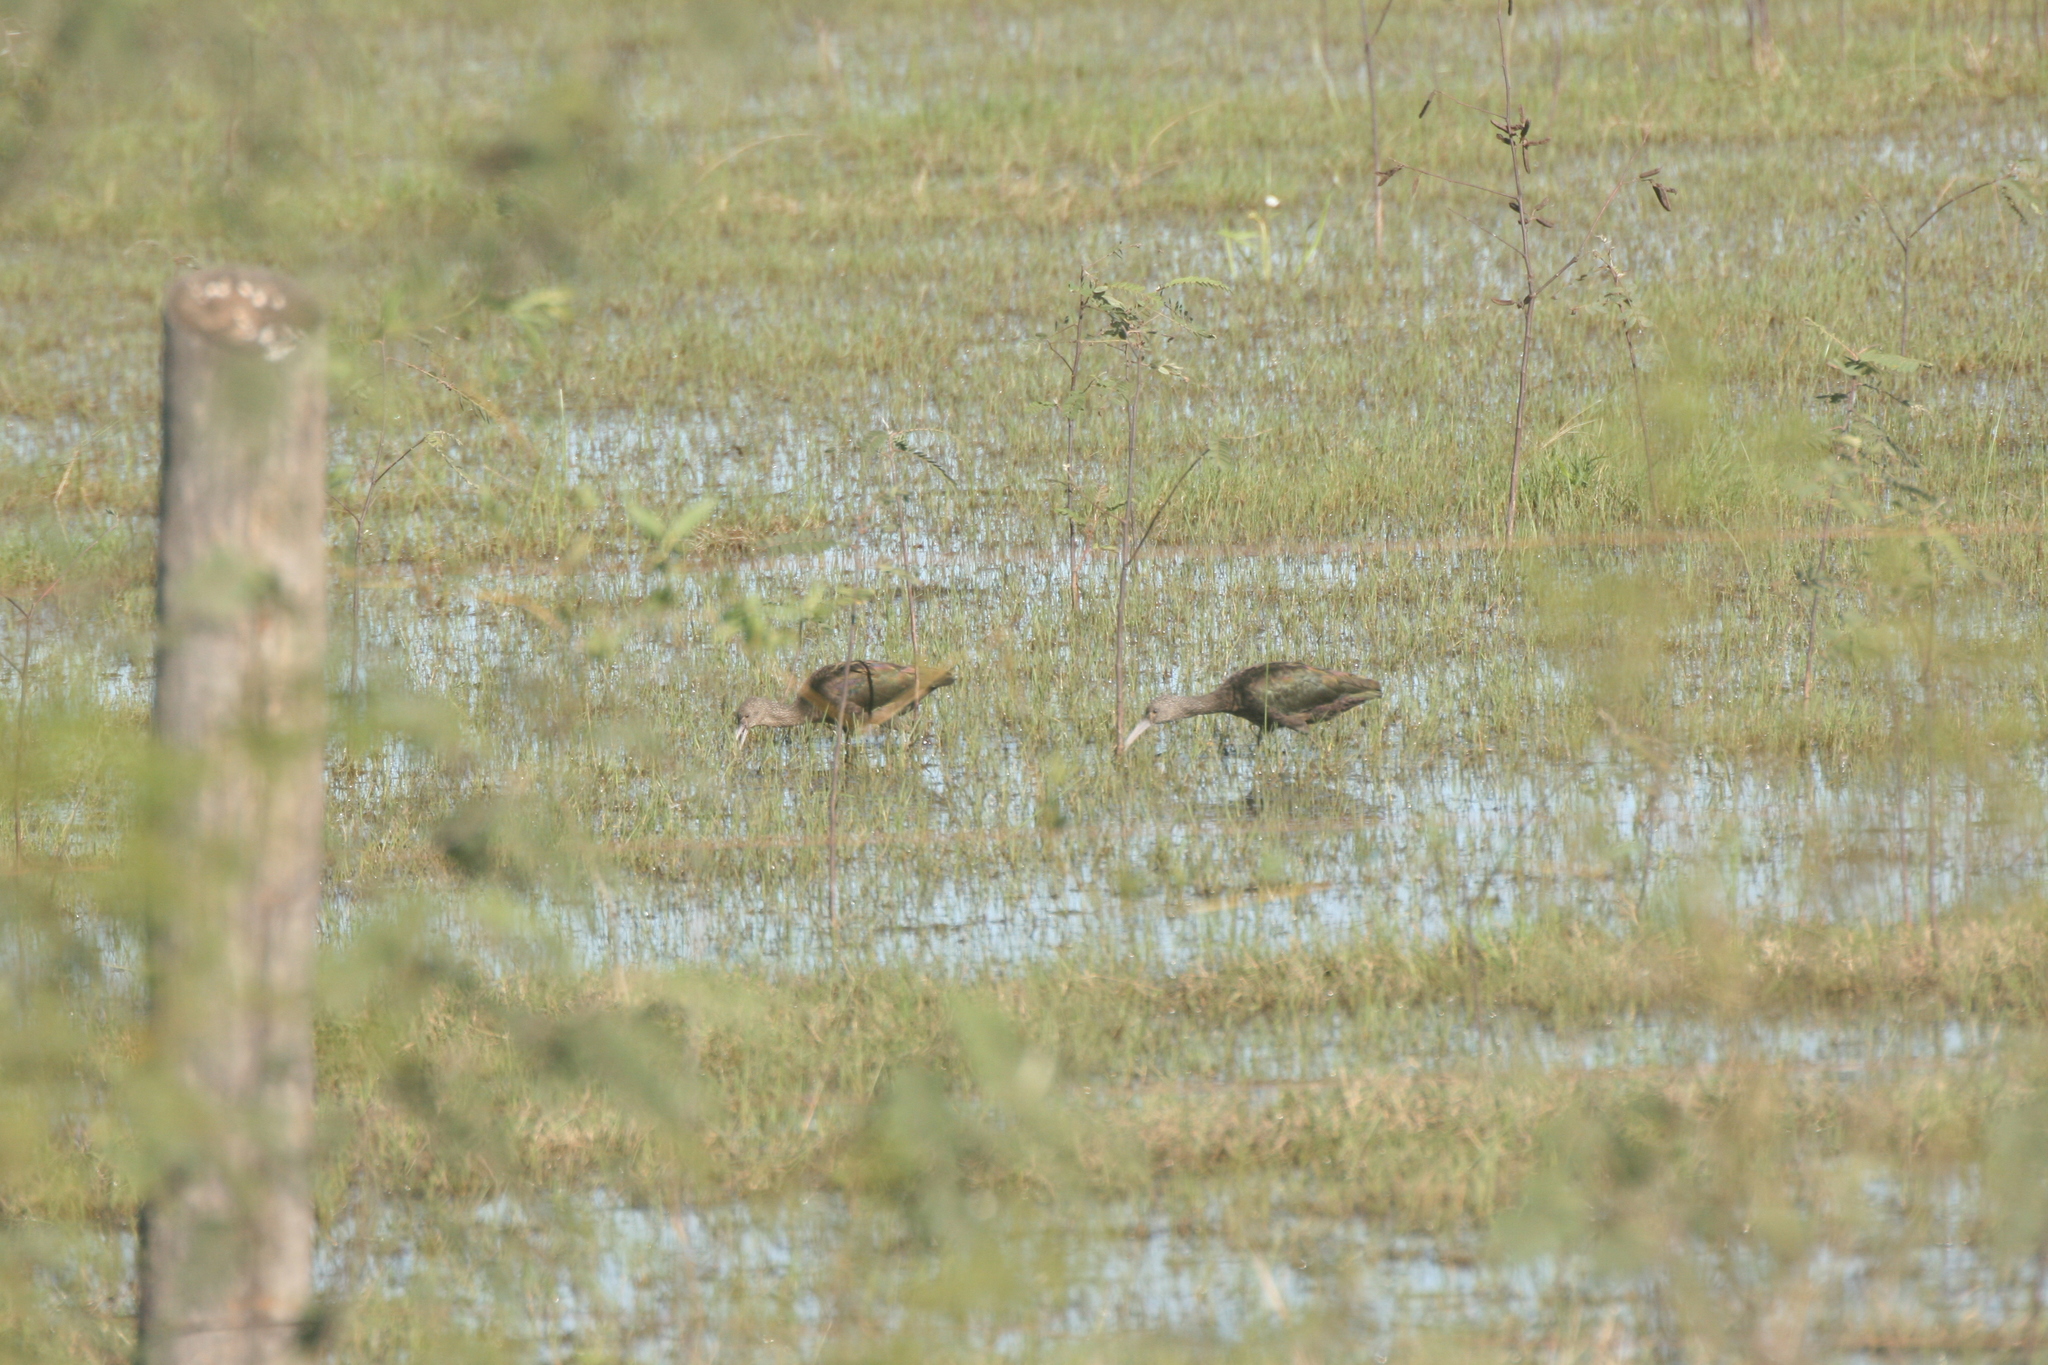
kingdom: Animalia
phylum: Chordata
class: Aves
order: Pelecaniformes
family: Threskiornithidae
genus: Plegadis
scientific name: Plegadis chihi
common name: White-faced ibis
